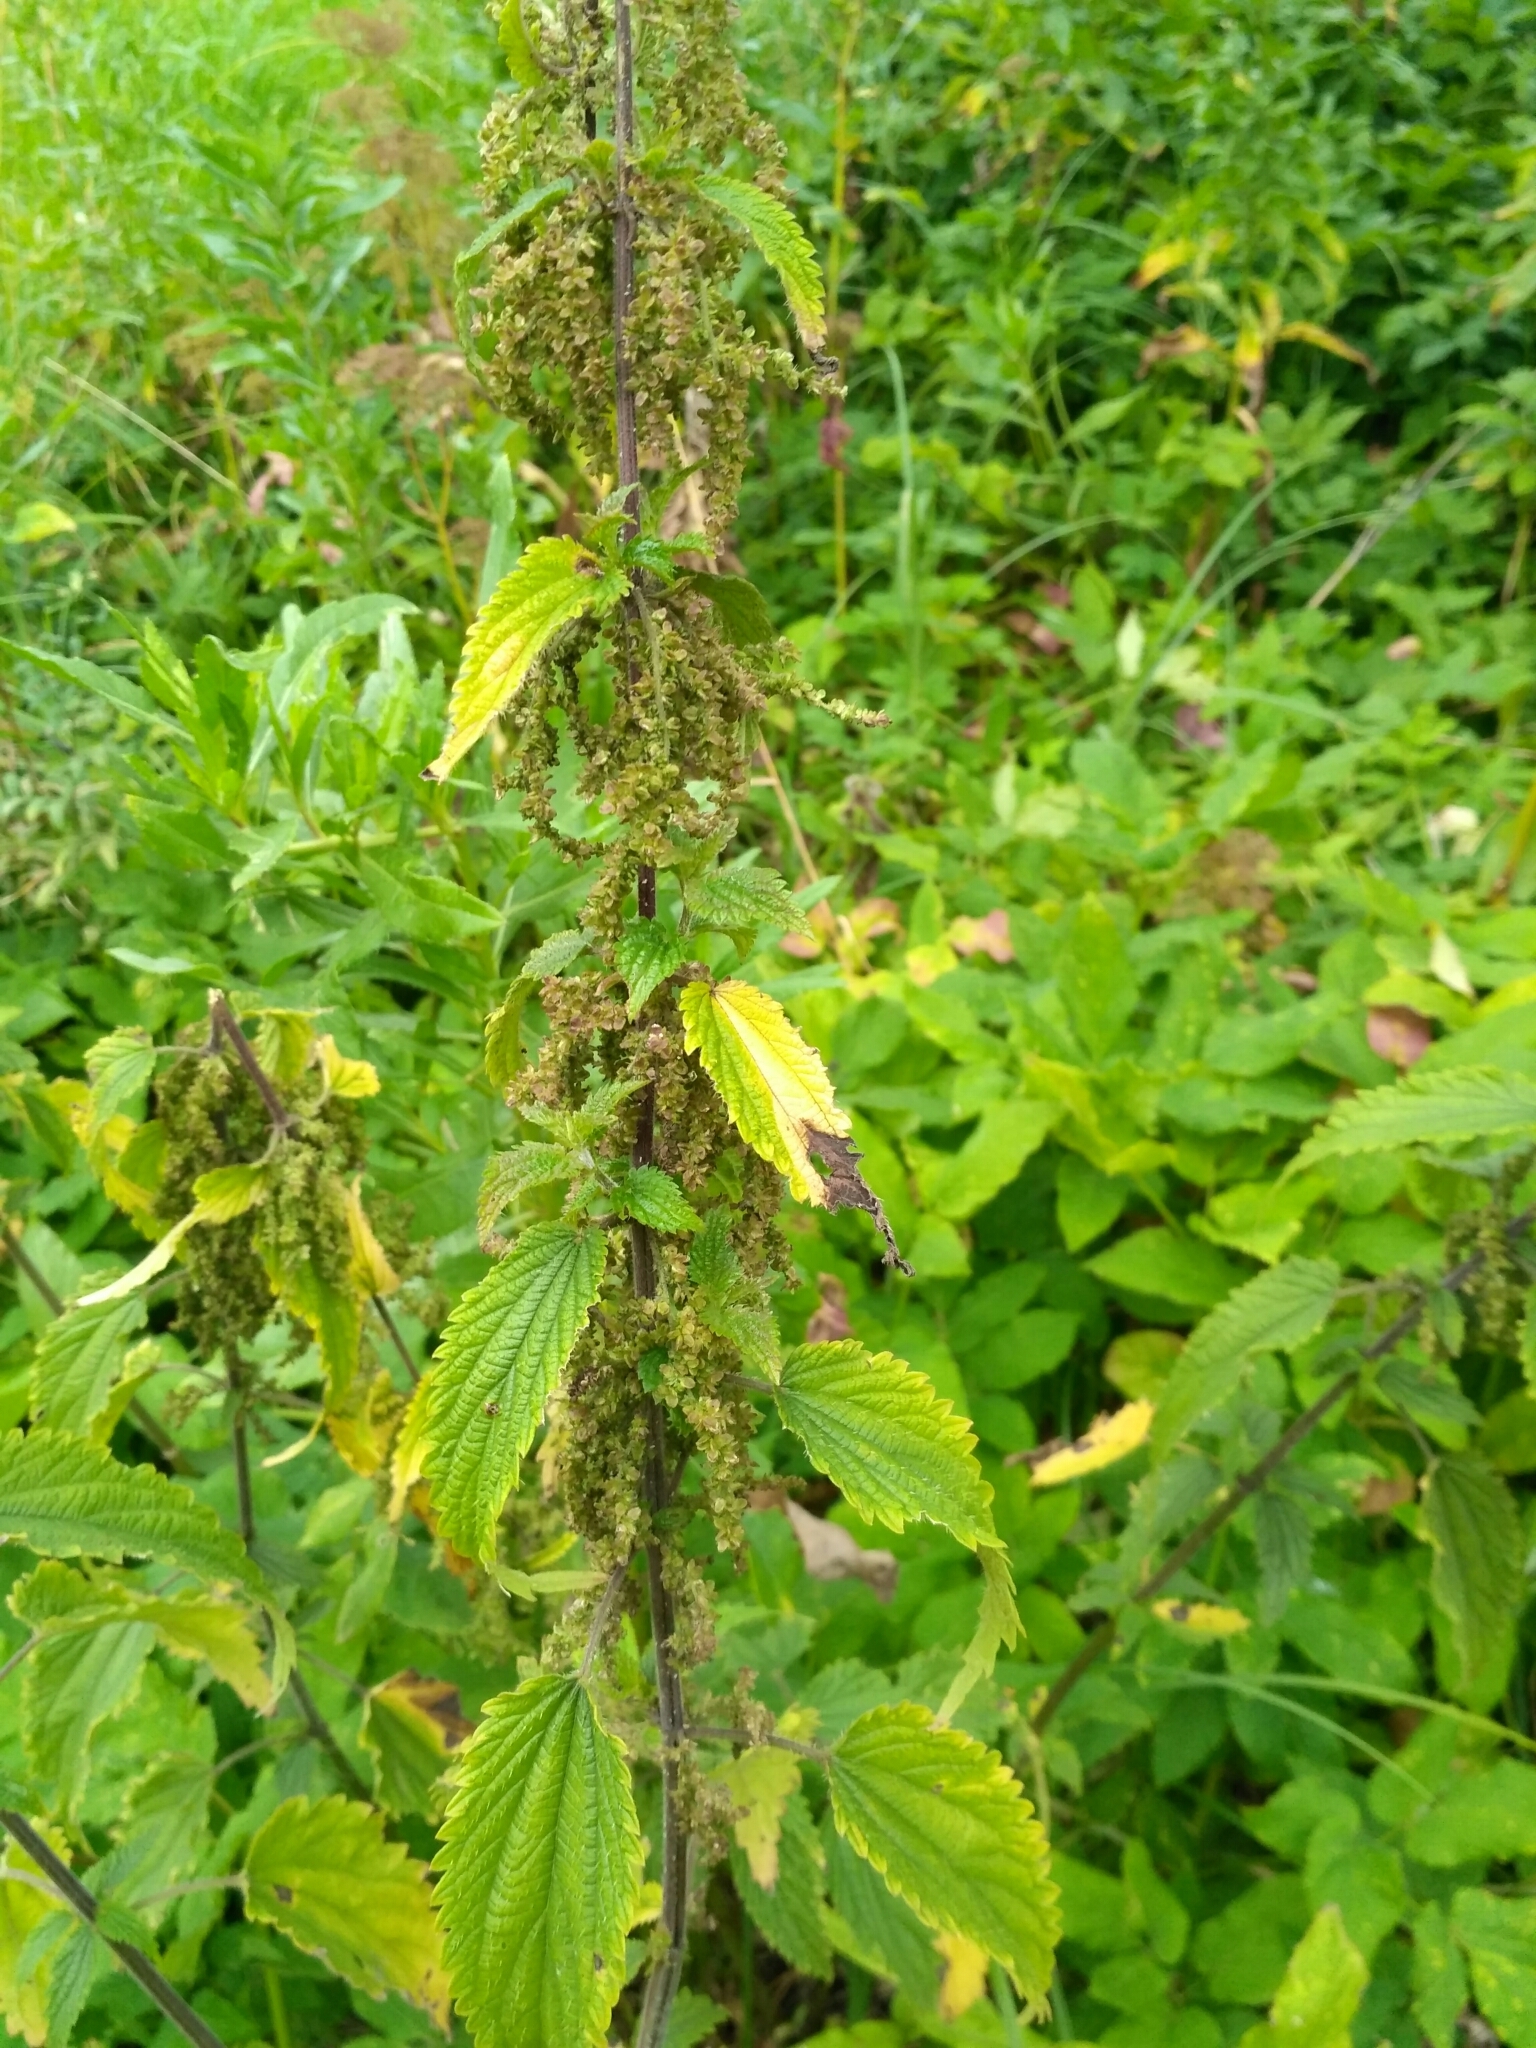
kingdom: Plantae
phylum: Tracheophyta
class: Magnoliopsida
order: Rosales
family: Urticaceae
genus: Urtica
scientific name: Urtica dioica
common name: Common nettle
